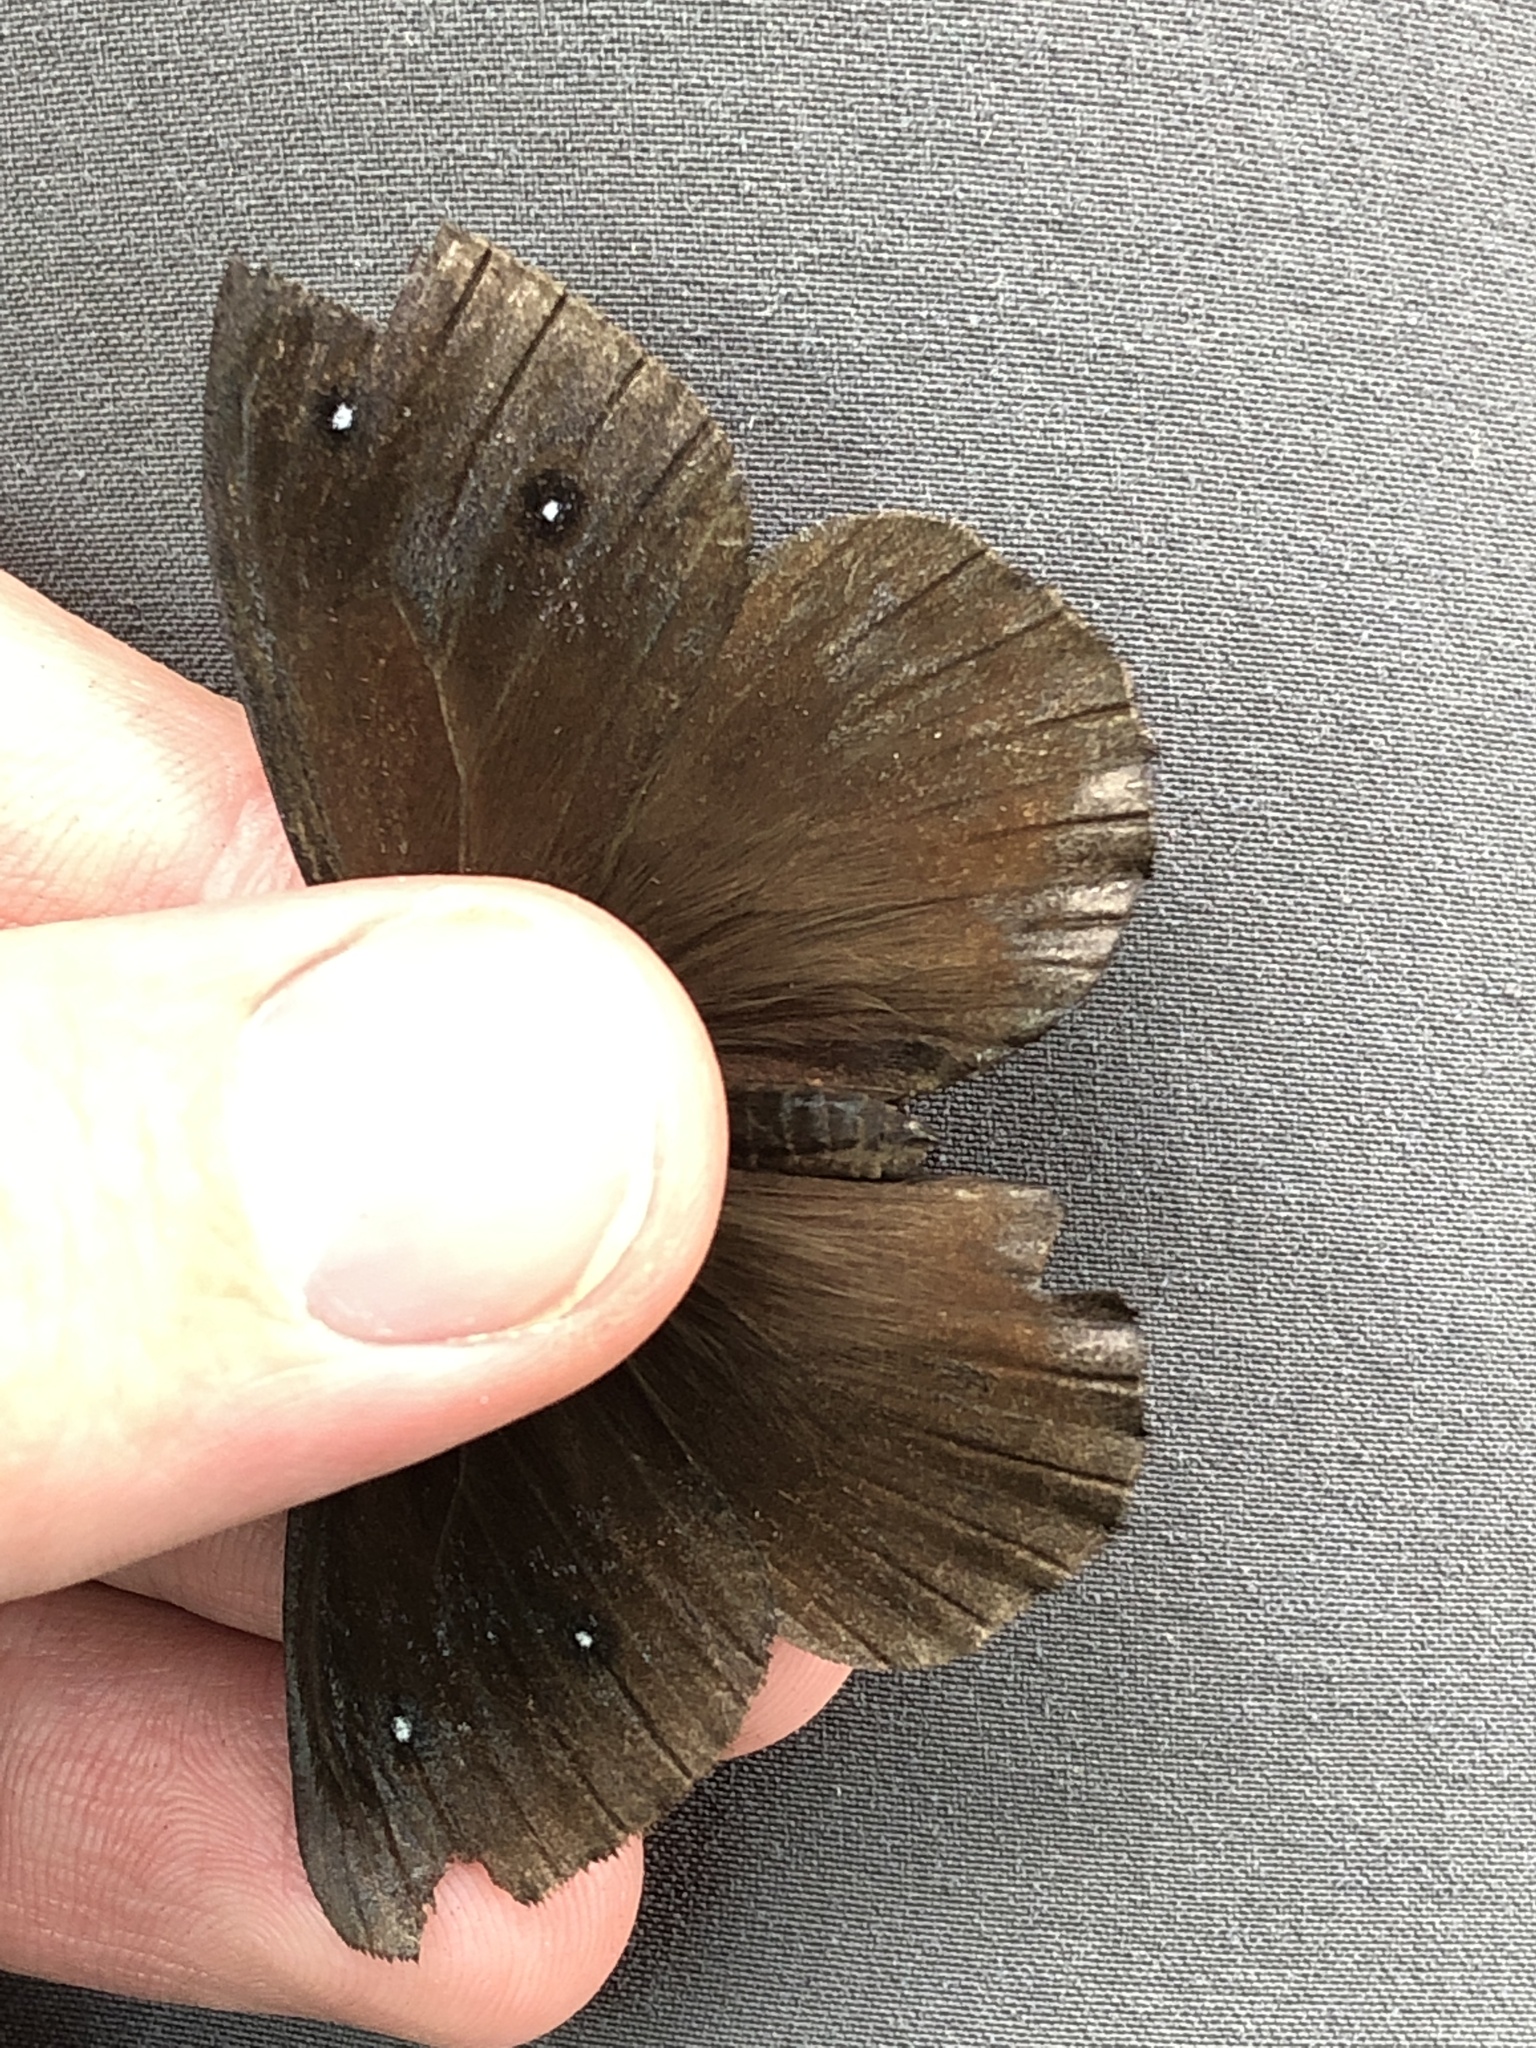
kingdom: Animalia
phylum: Arthropoda
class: Insecta
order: Lepidoptera
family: Nymphalidae
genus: Satyrus
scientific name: Satyrus ferula
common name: Great sooty satyr
